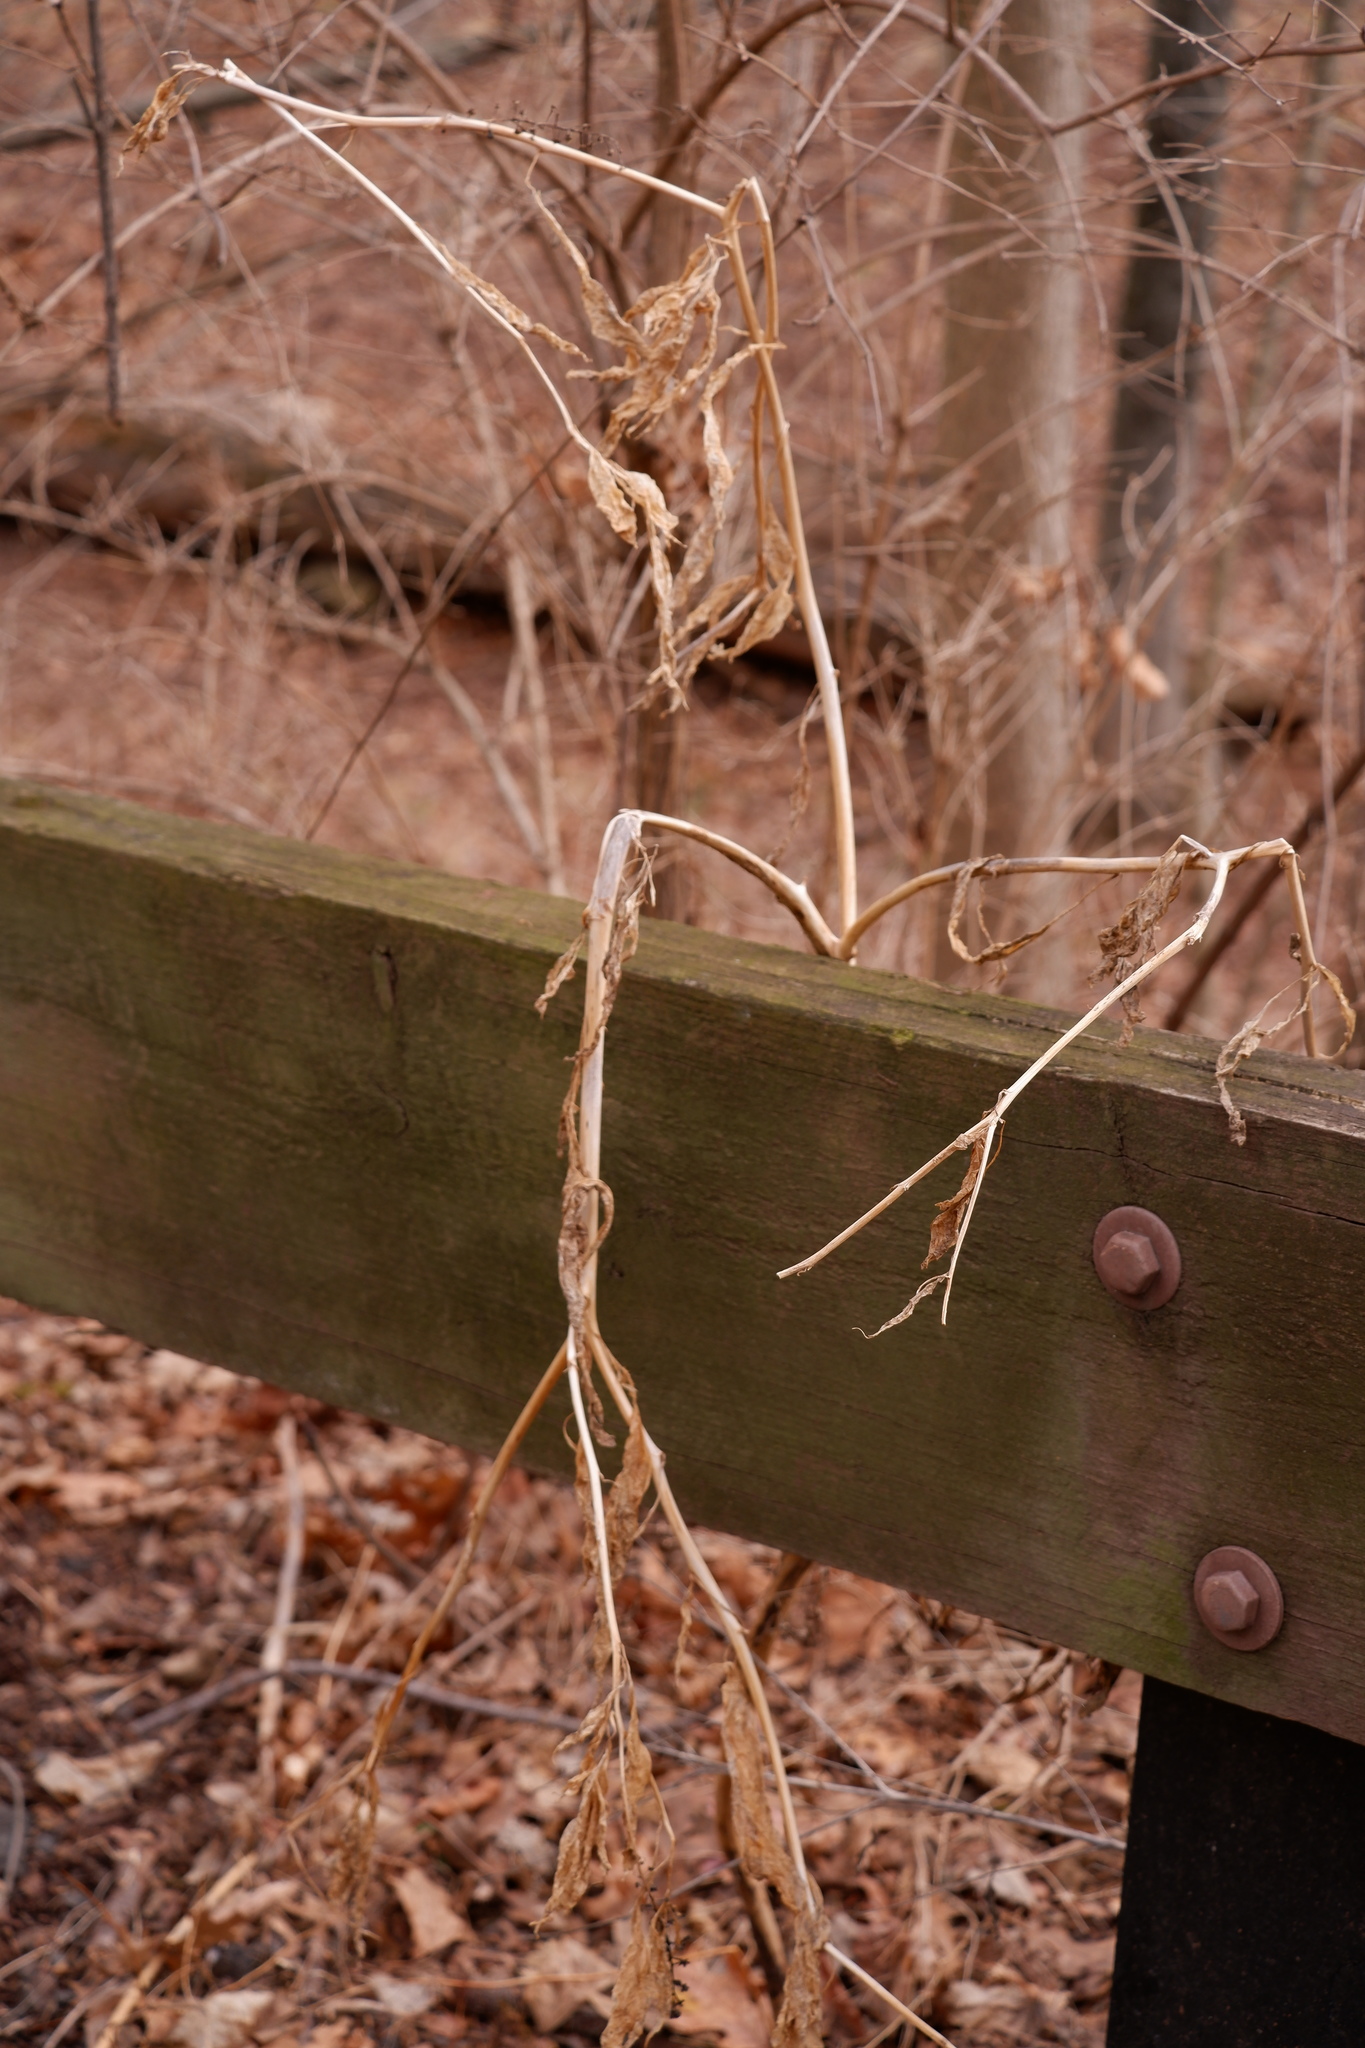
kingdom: Plantae
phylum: Tracheophyta
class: Magnoliopsida
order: Caryophyllales
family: Phytolaccaceae
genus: Phytolacca
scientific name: Phytolacca americana
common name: American pokeweed
